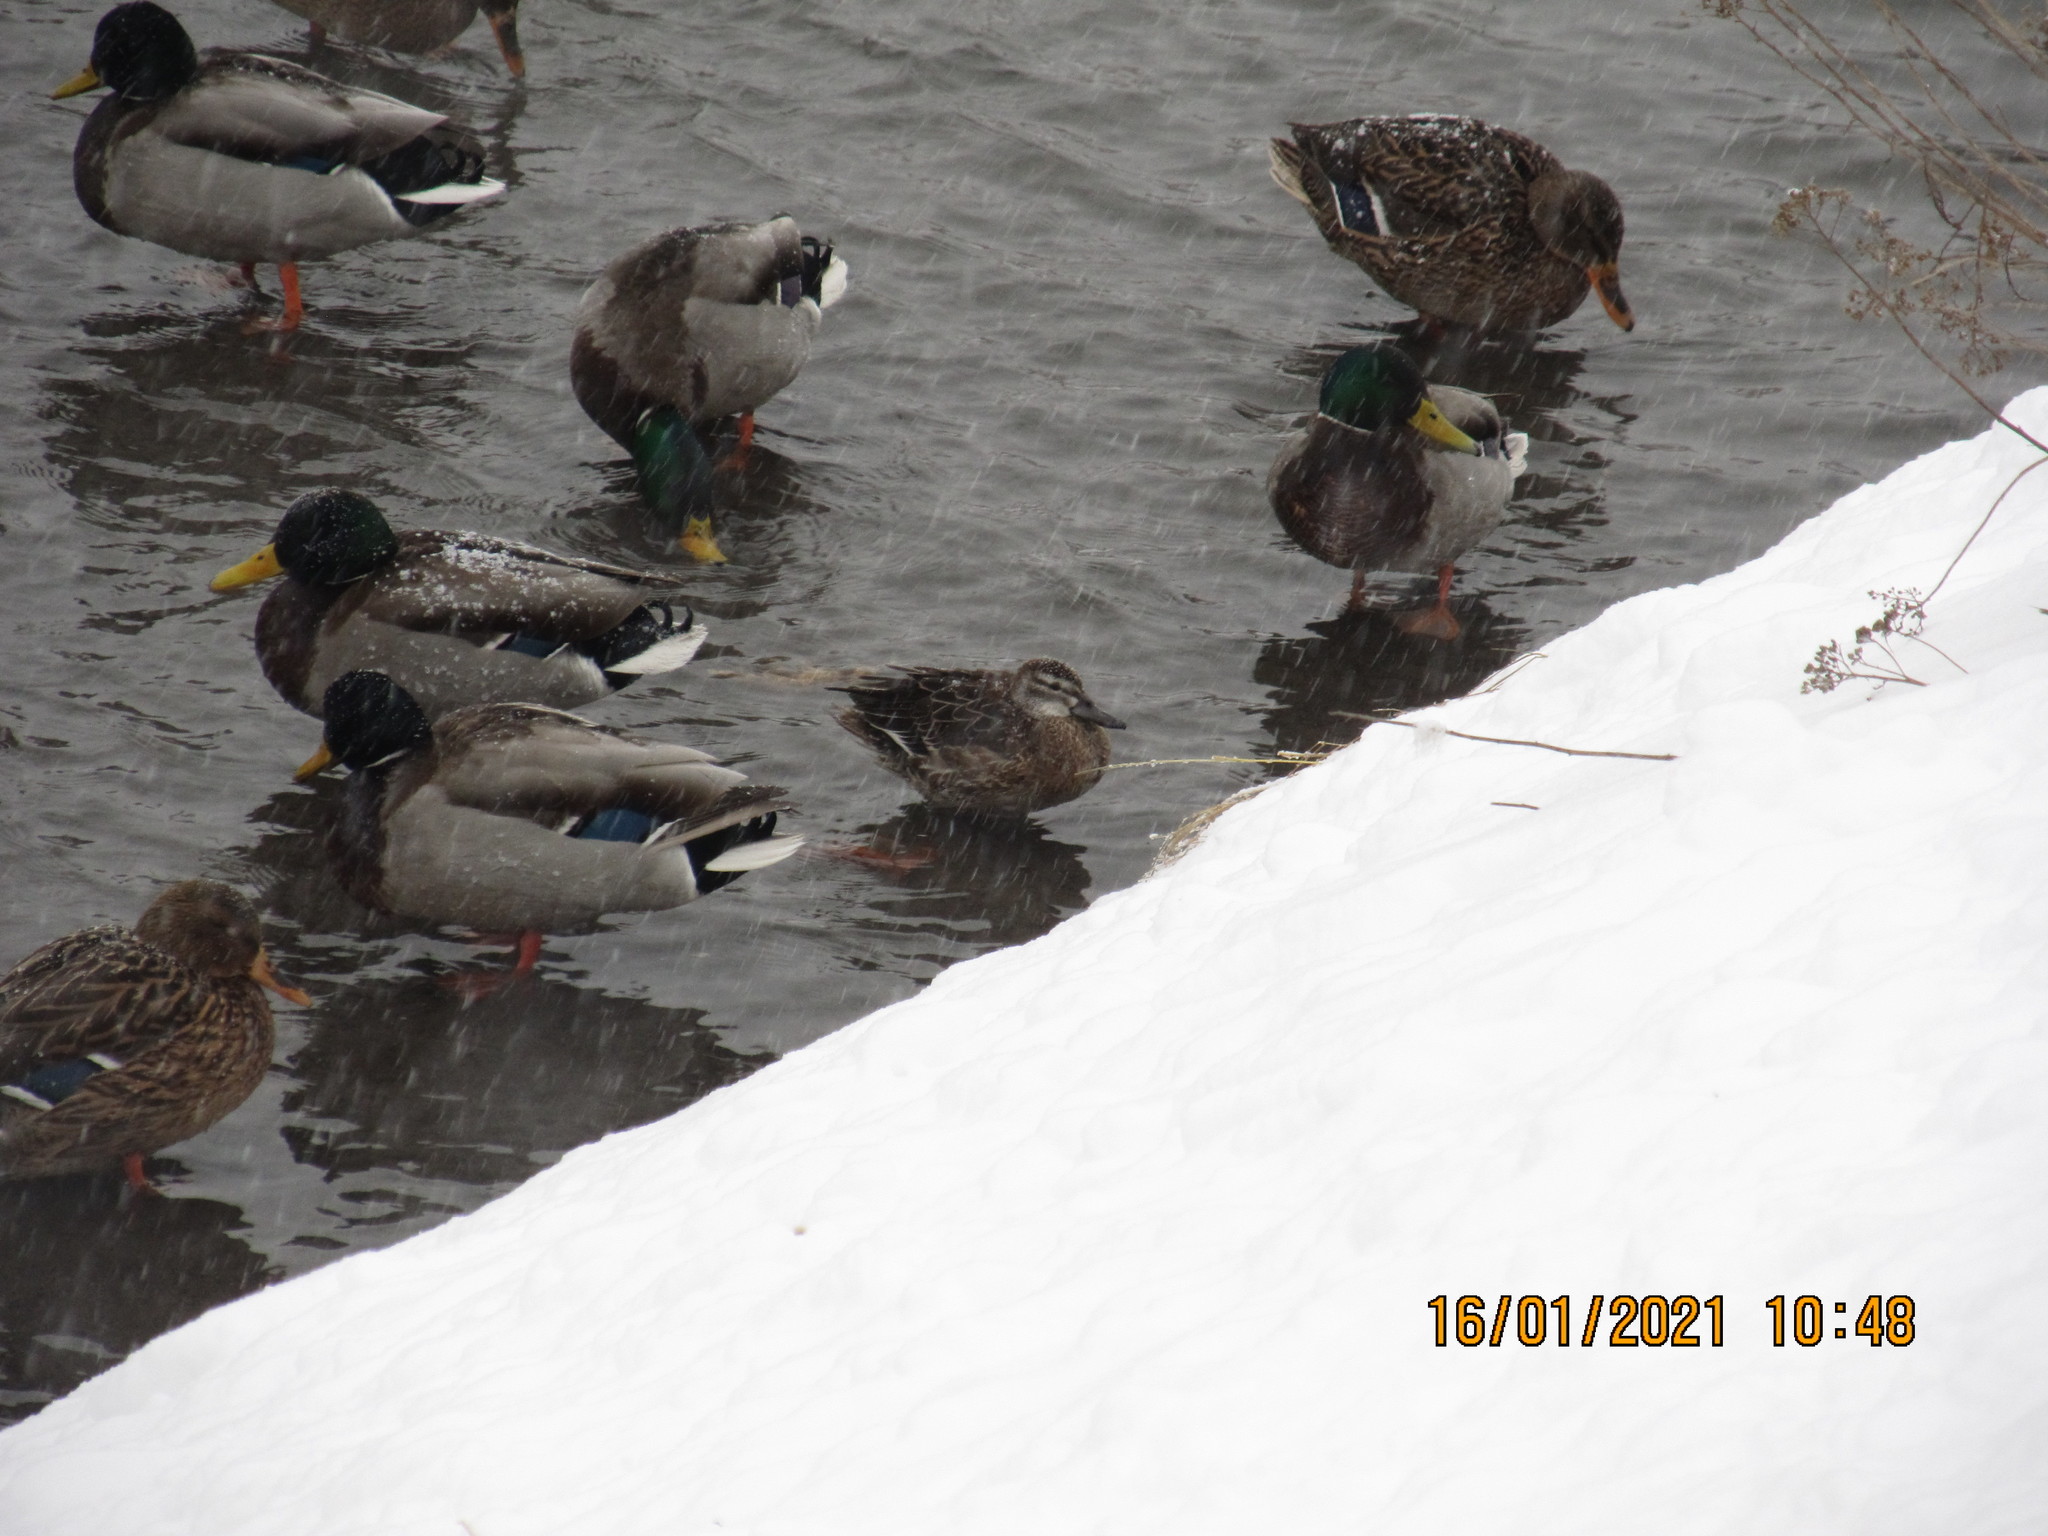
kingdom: Animalia
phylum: Chordata
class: Aves
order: Anseriformes
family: Anatidae
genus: Spatula
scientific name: Spatula querquedula
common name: Garganey
